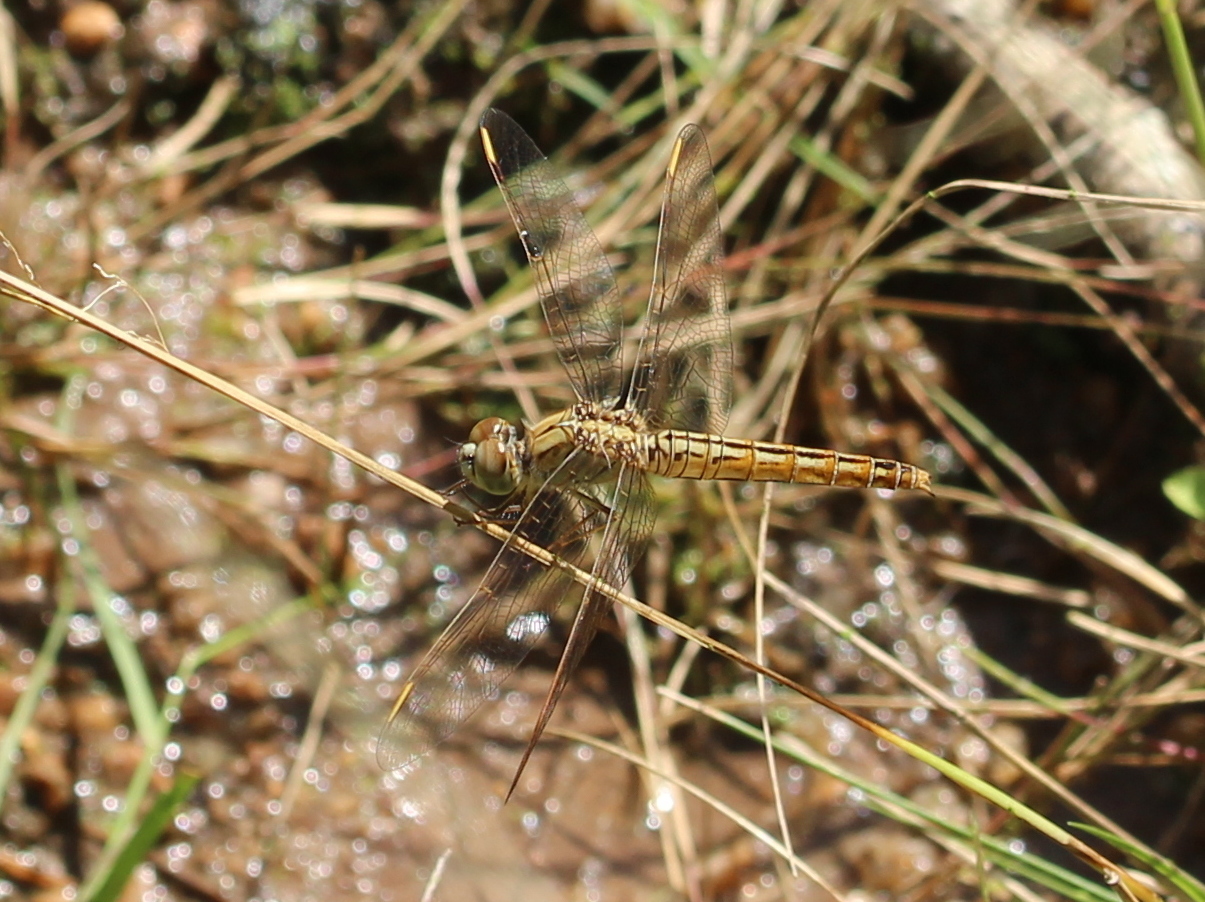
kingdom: Animalia
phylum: Arthropoda
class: Insecta
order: Odonata
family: Libellulidae
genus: Brachythemis
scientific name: Brachythemis contaminata
